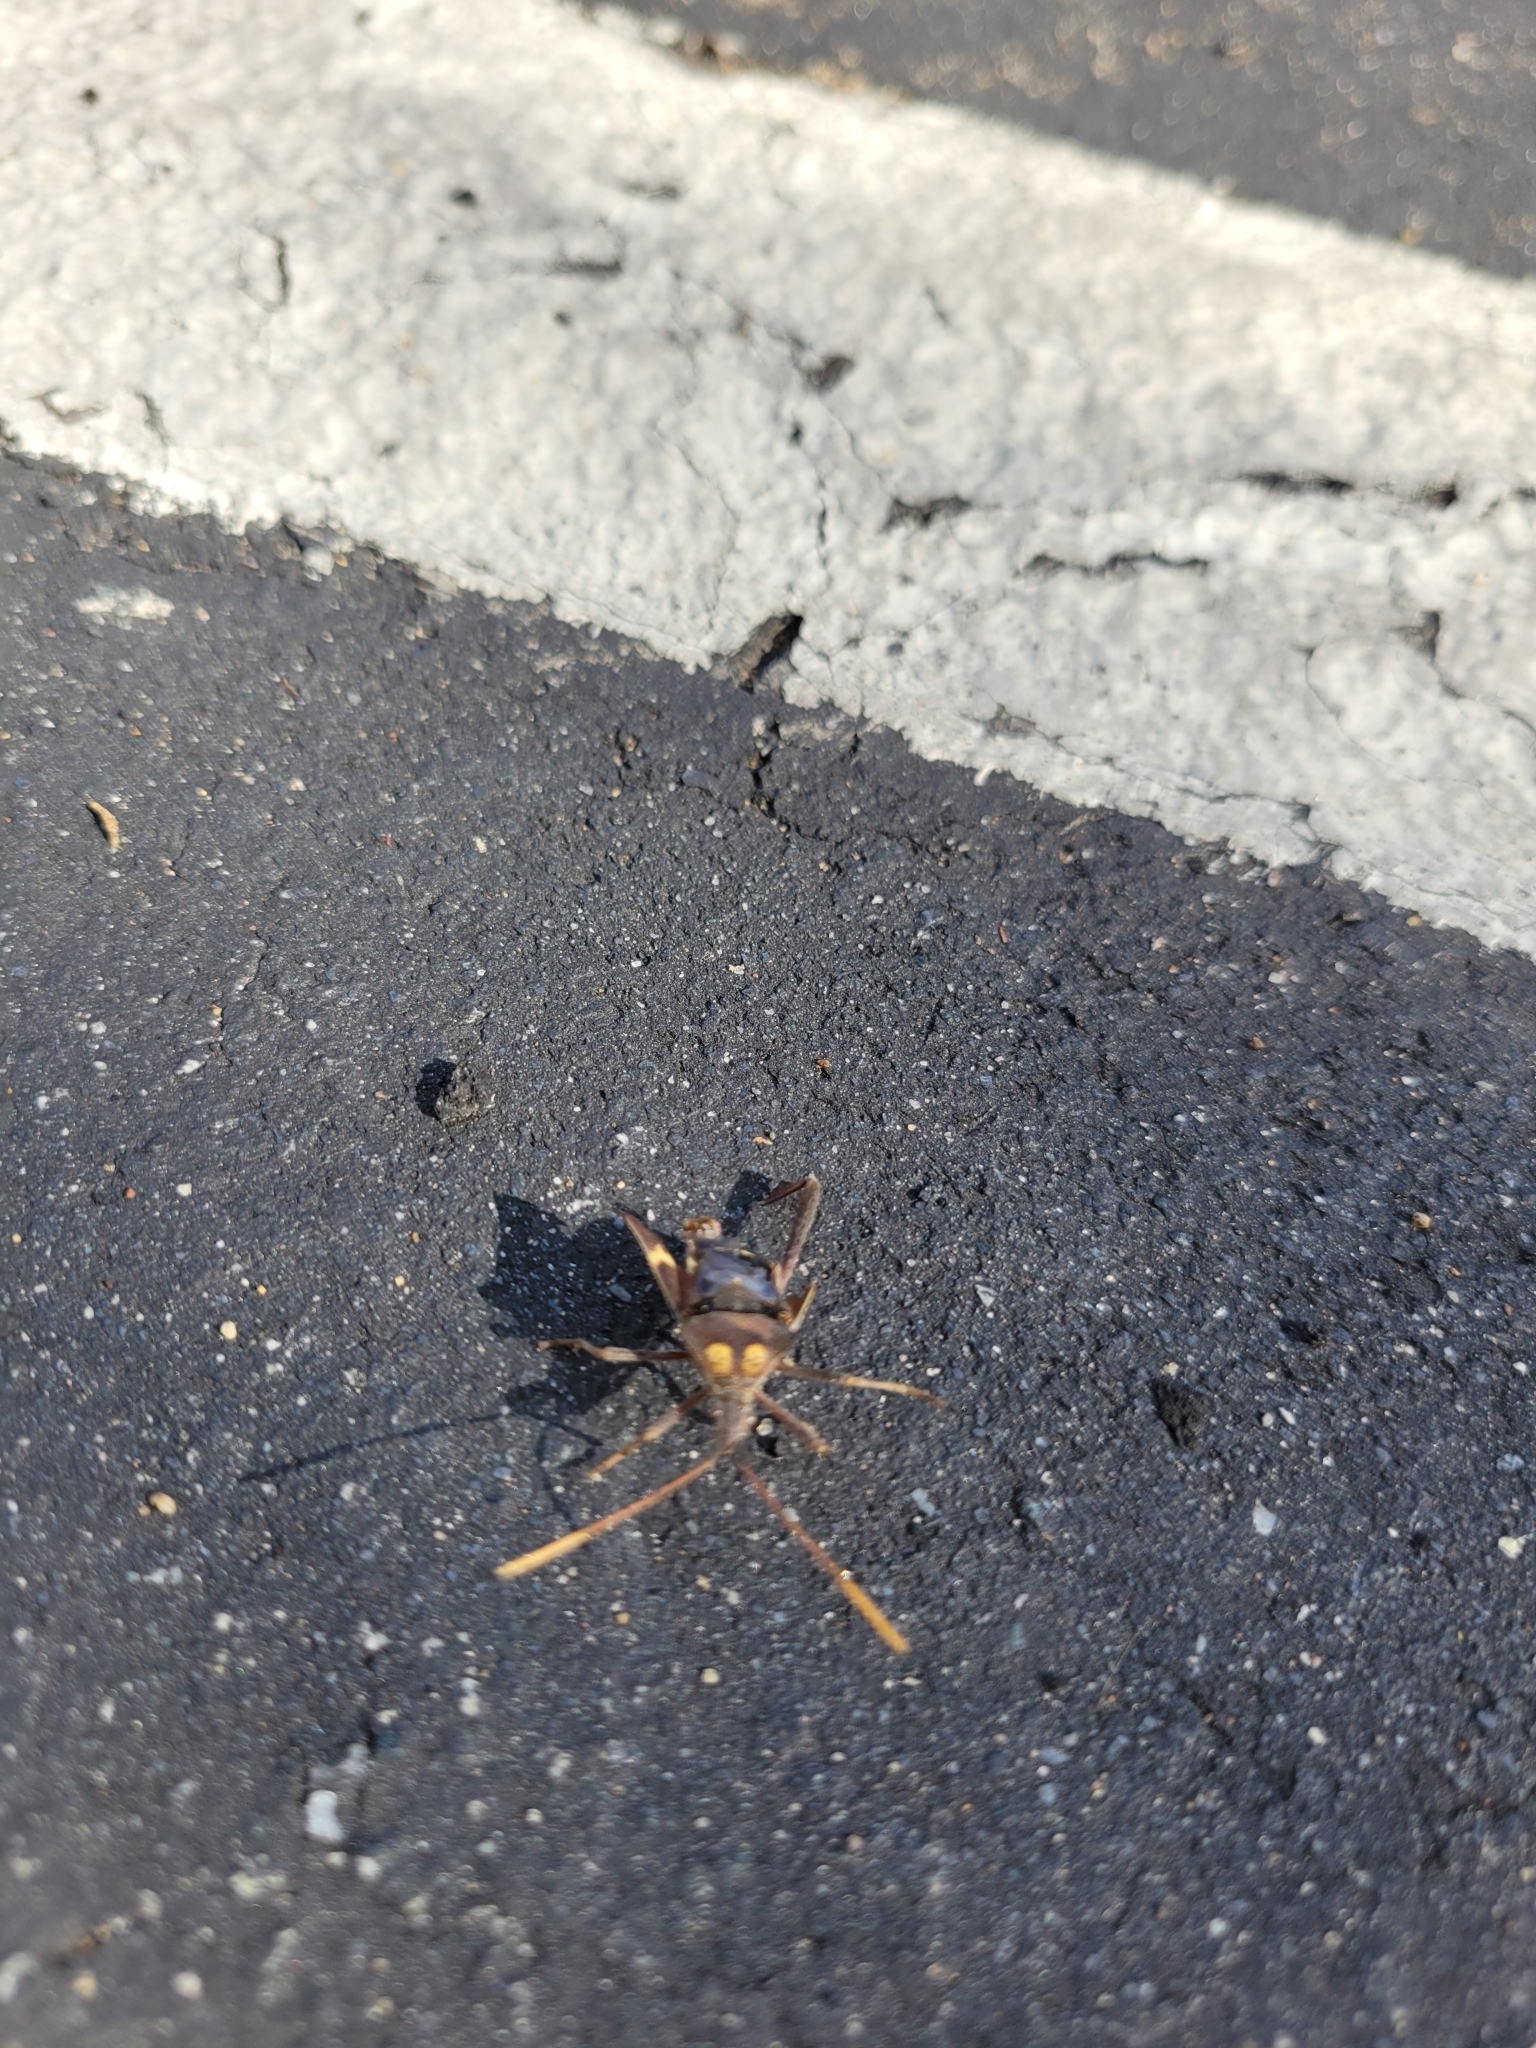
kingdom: Animalia
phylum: Arthropoda
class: Insecta
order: Hemiptera
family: Coreidae
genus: Leptoglossus
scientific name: Leptoglossus zonatus
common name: Large-legged bug
